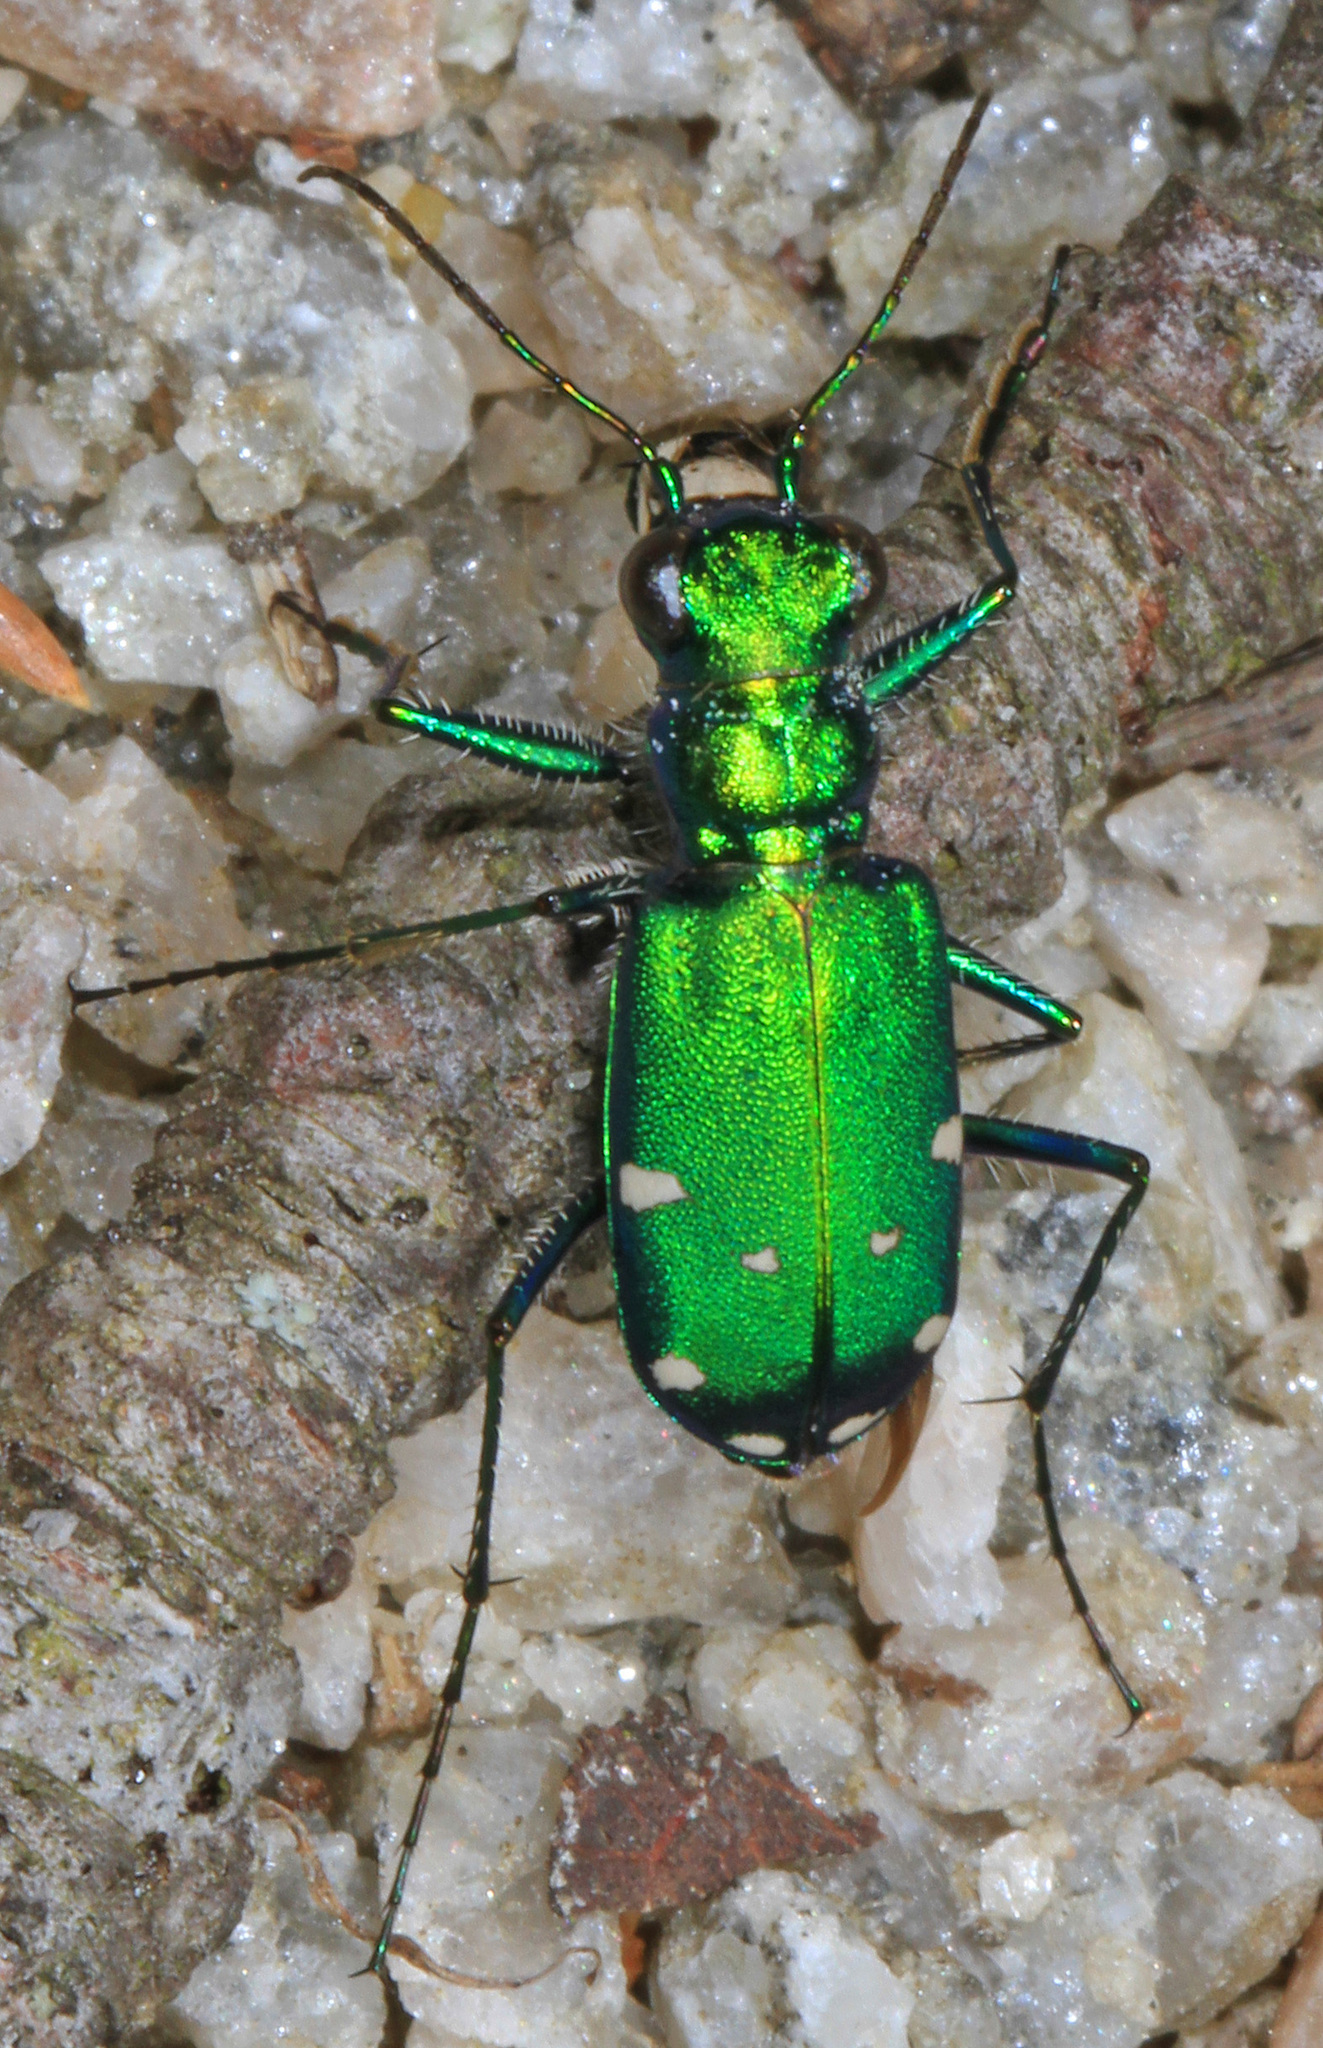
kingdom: Animalia
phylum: Arthropoda
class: Insecta
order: Coleoptera
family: Carabidae
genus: Cicindela
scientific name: Cicindela sexguttata
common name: Six-spotted tiger beetle
